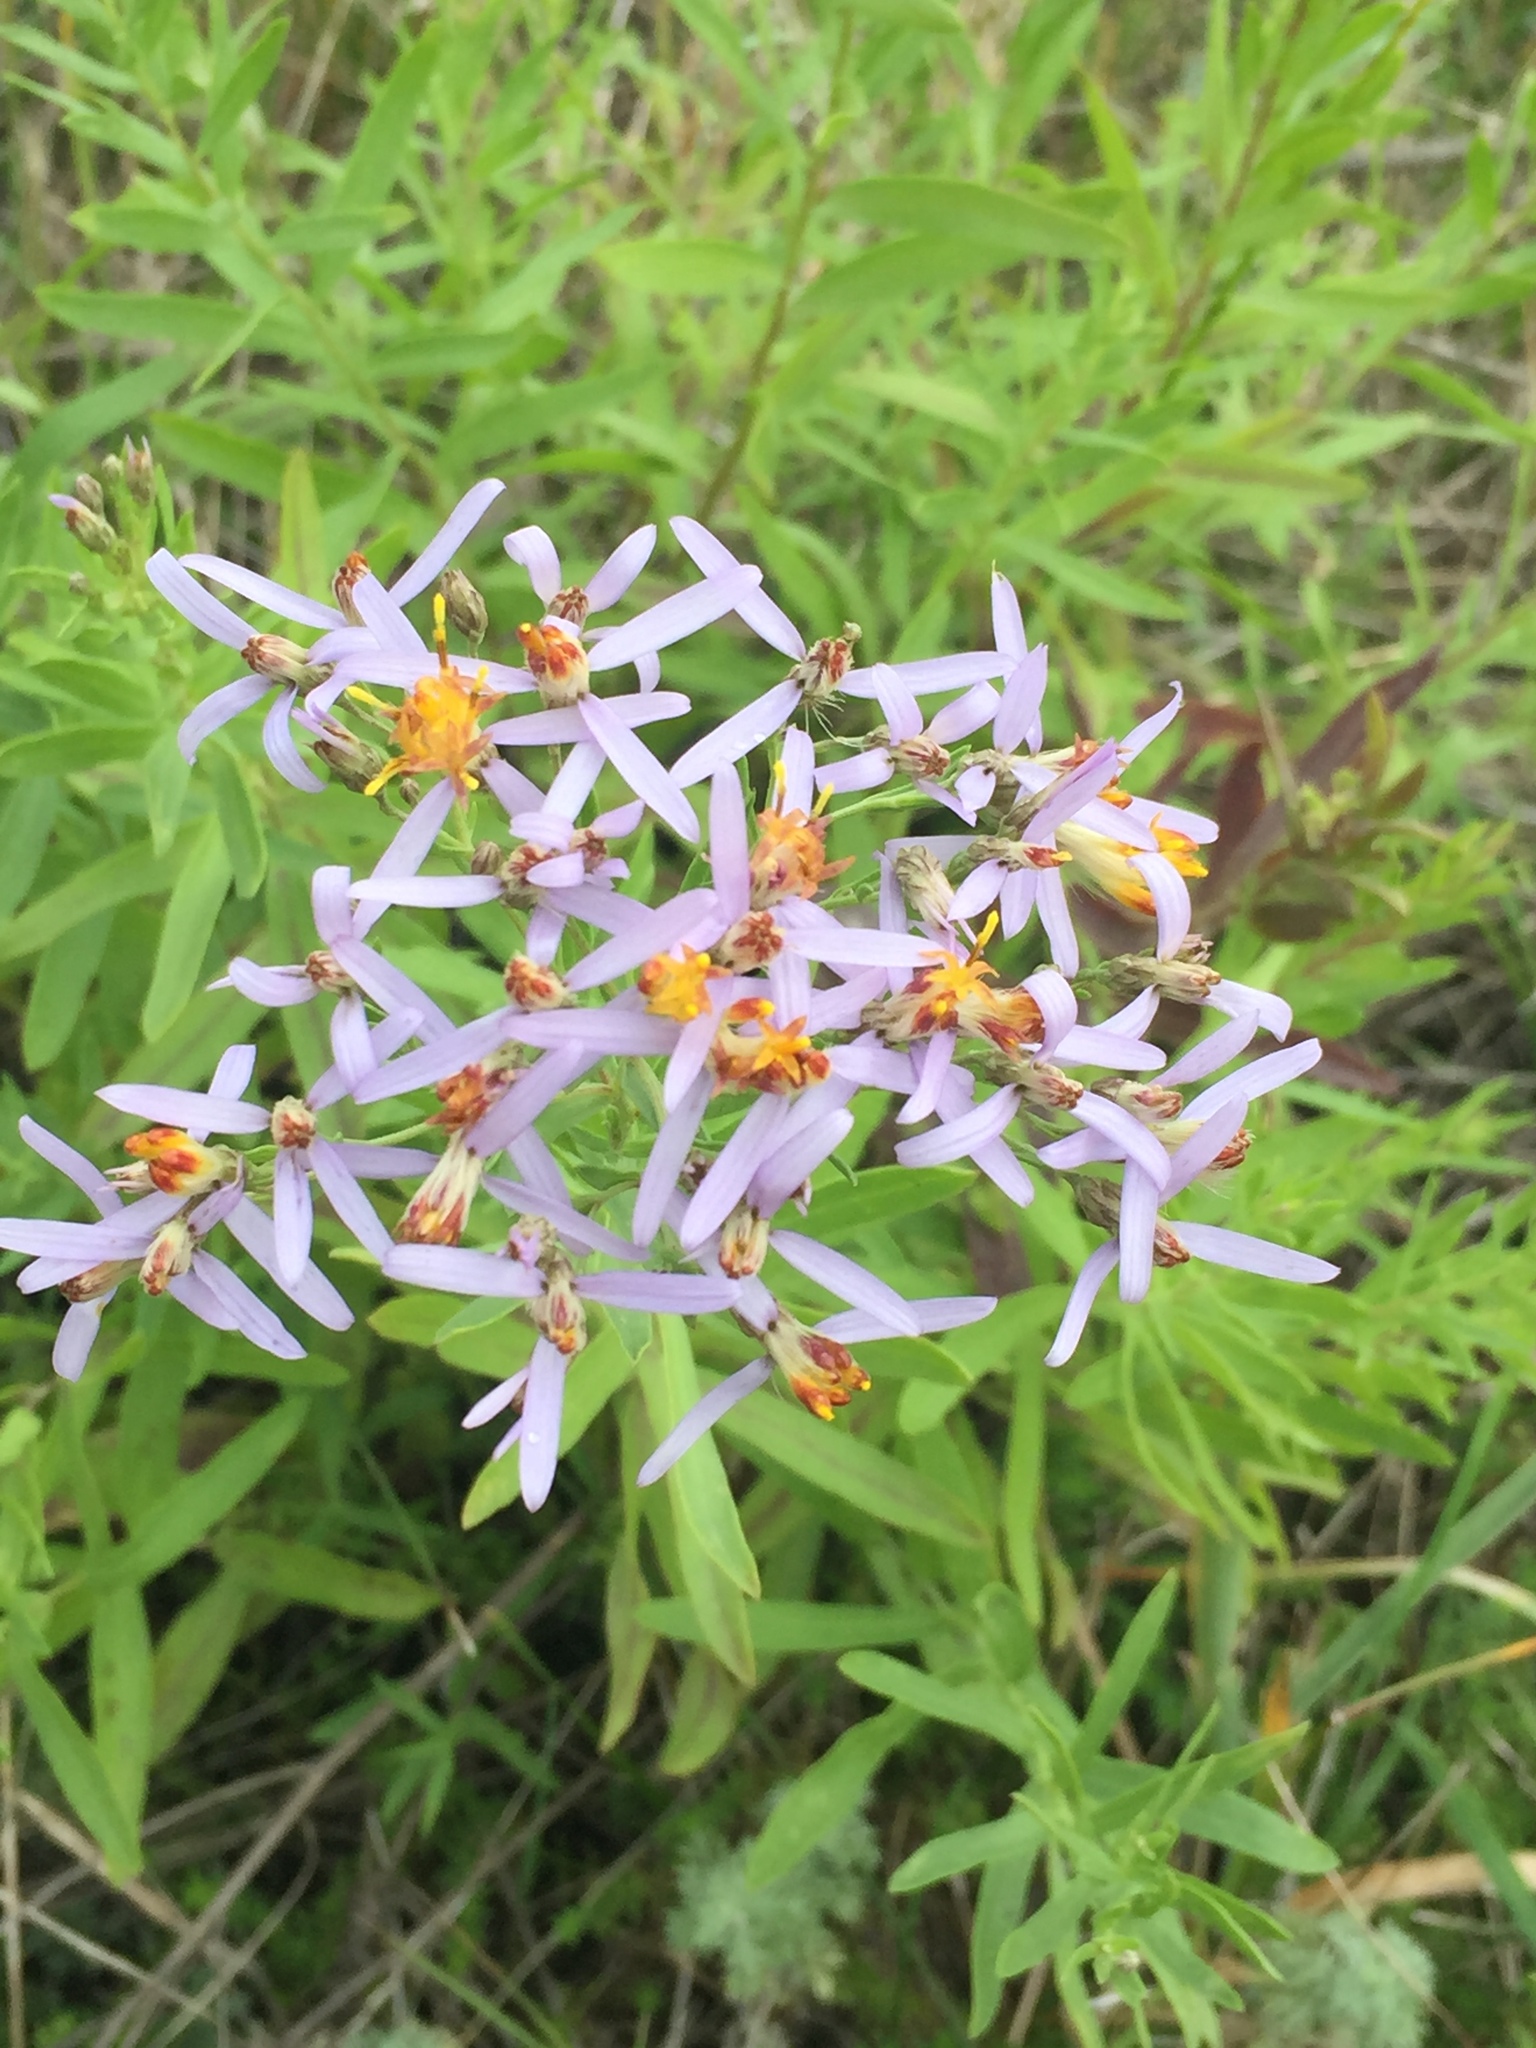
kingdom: Plantae
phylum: Tracheophyta
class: Magnoliopsida
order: Asterales
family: Asteraceae
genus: Galatella
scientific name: Galatella sedifolia
